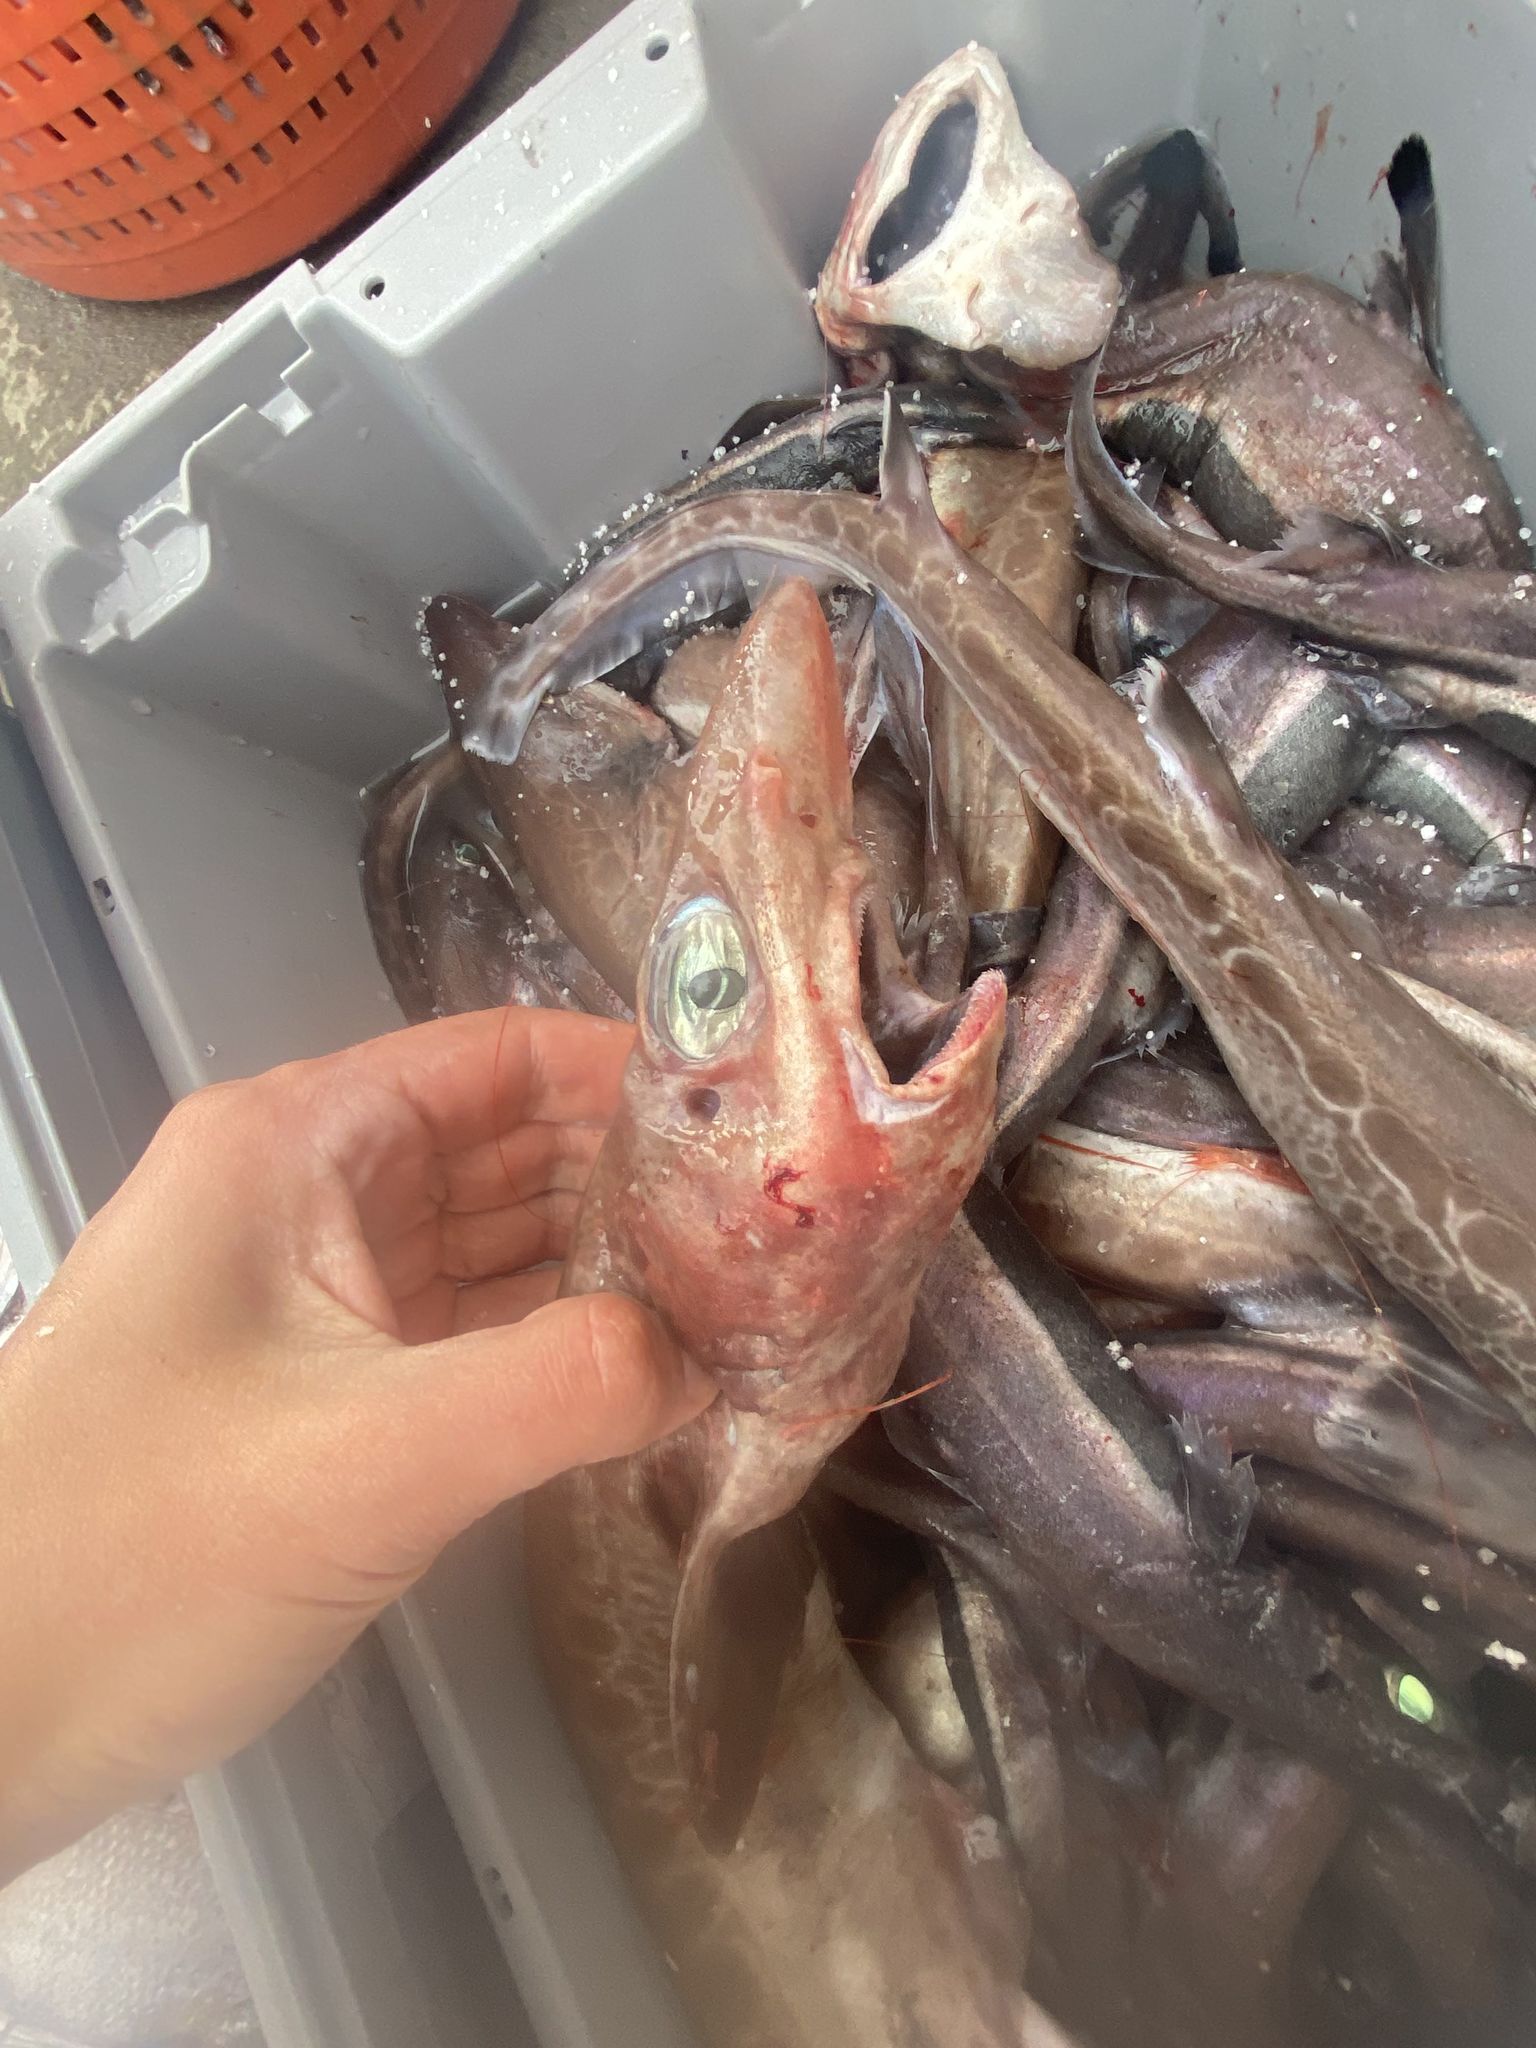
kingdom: Animalia
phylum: Chordata
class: Elasmobranchii
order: Carcharhiniformes
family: Scyliorhinidae
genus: Galeus
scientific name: Galeus melastomus
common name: Black-mouthed dogfish
